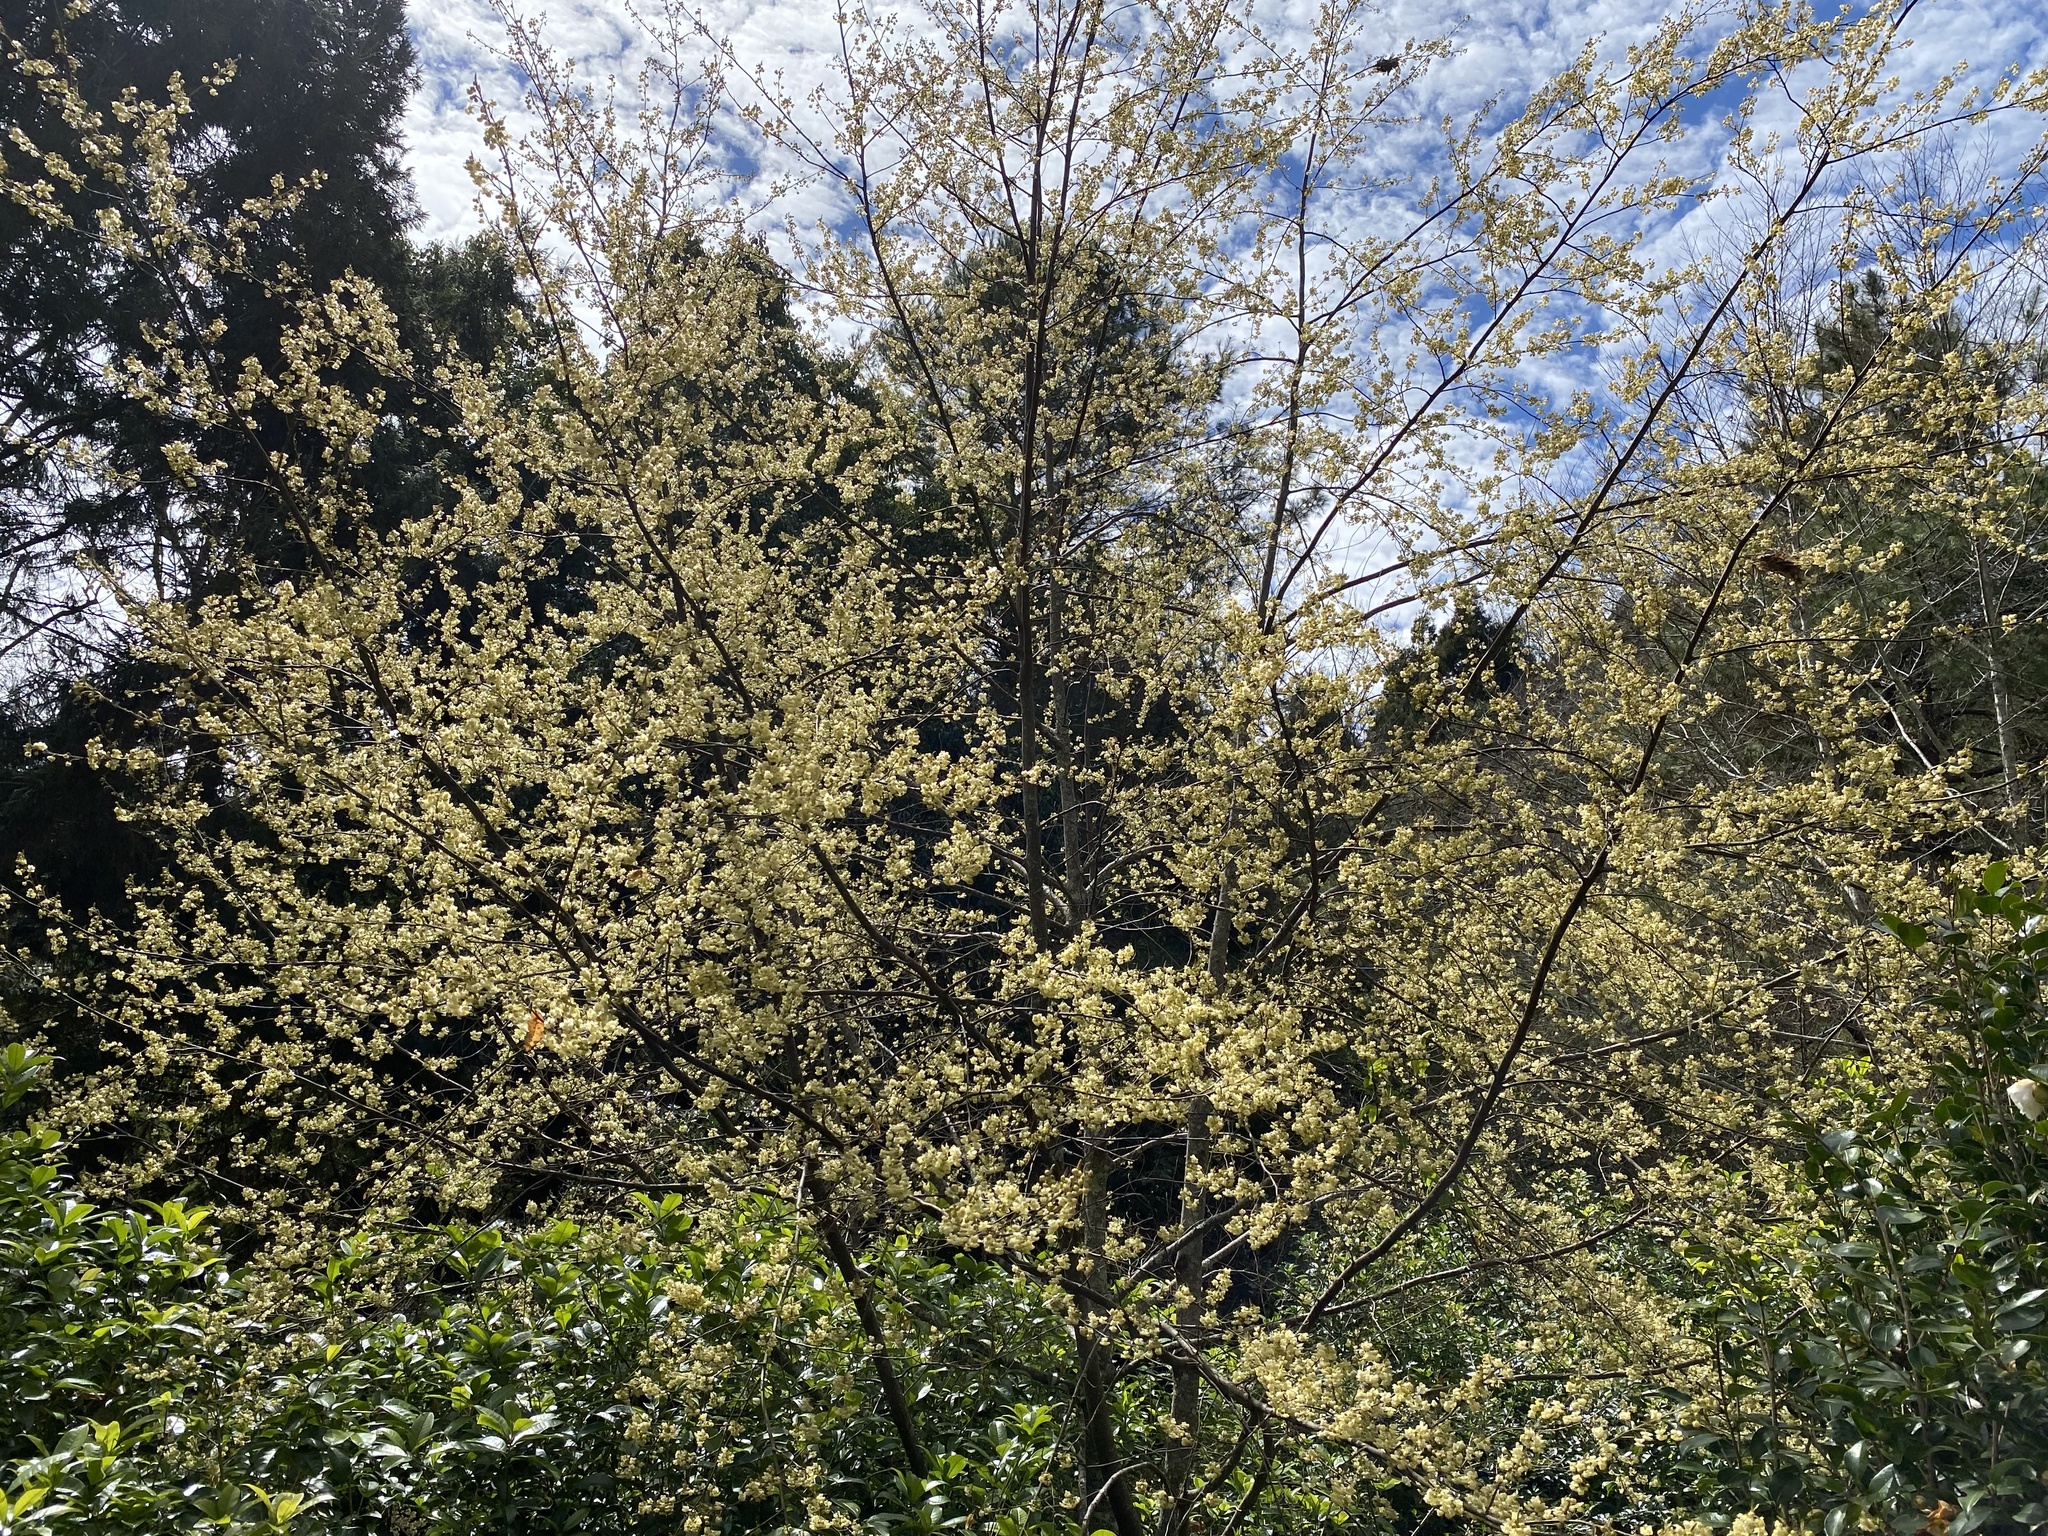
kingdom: Plantae
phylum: Tracheophyta
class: Magnoliopsida
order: Laurales
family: Lauraceae
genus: Litsea
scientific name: Litsea cubeba
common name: Mountain-pepper
